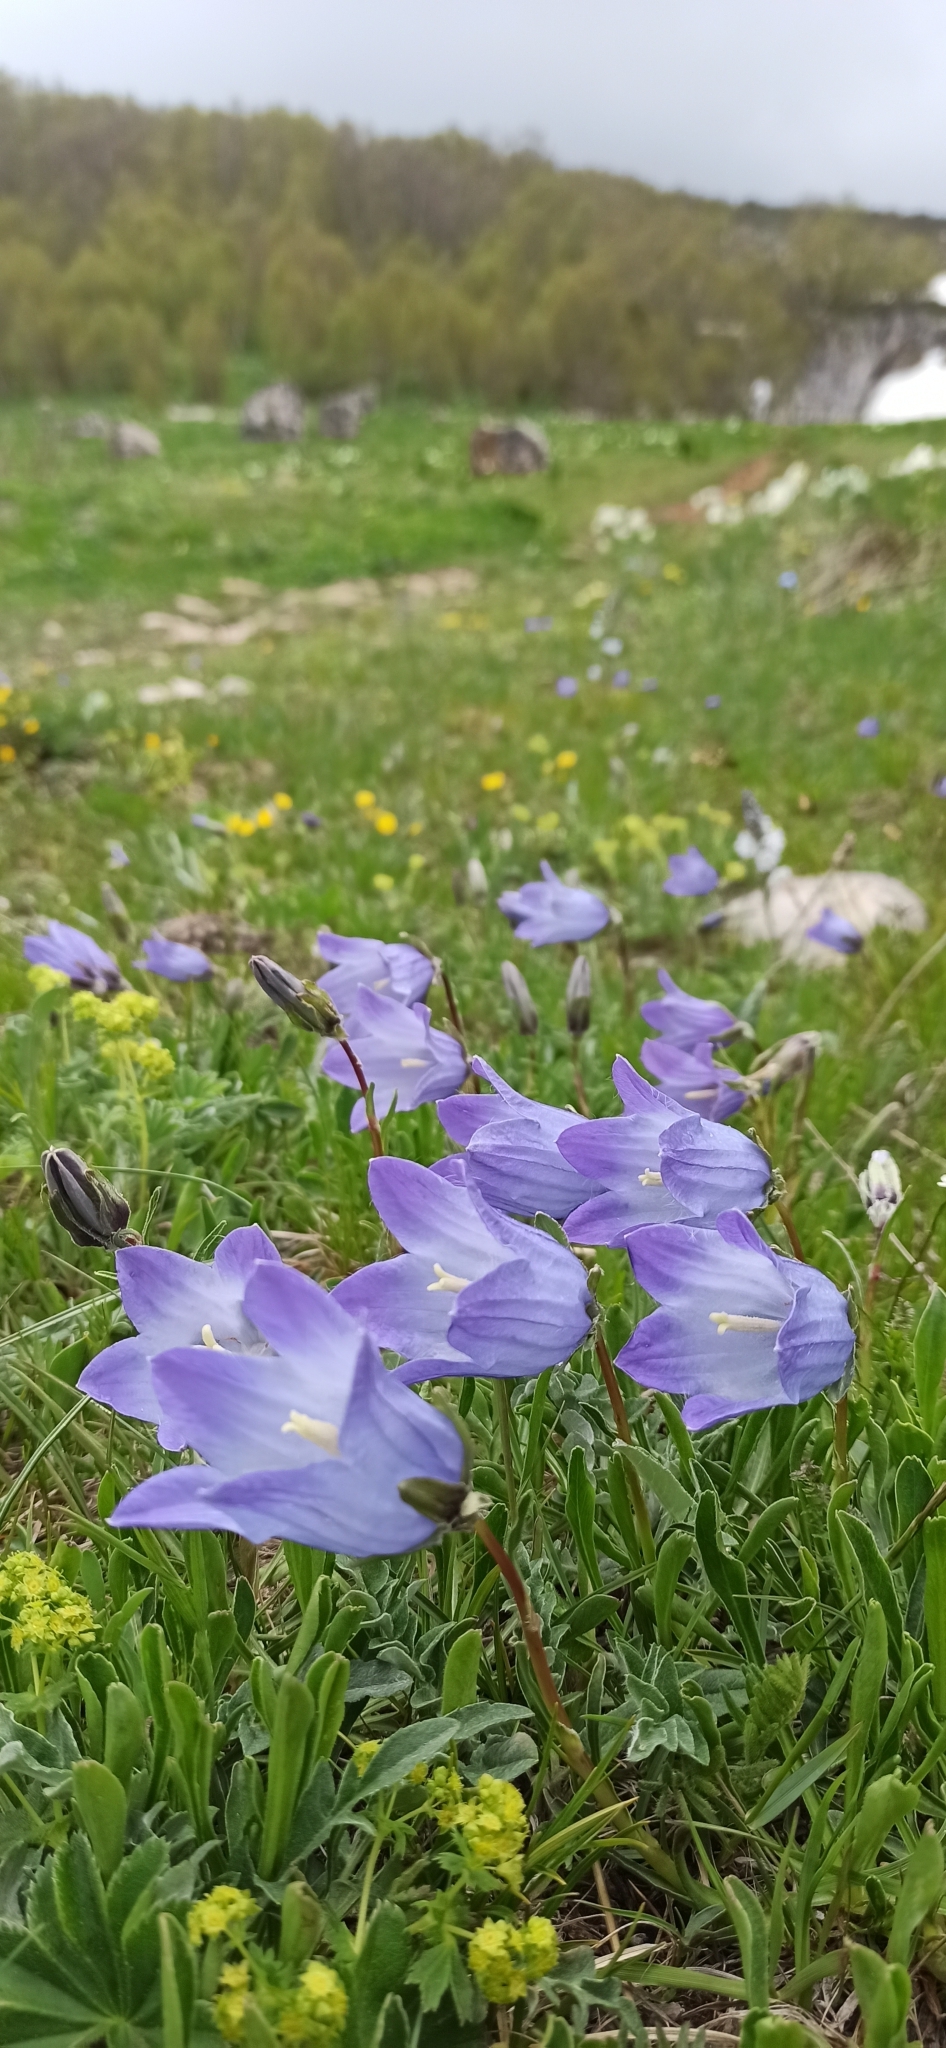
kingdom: Plantae
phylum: Tracheophyta
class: Magnoliopsida
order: Asterales
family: Campanulaceae
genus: Campanula
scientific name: Campanula tridentata
